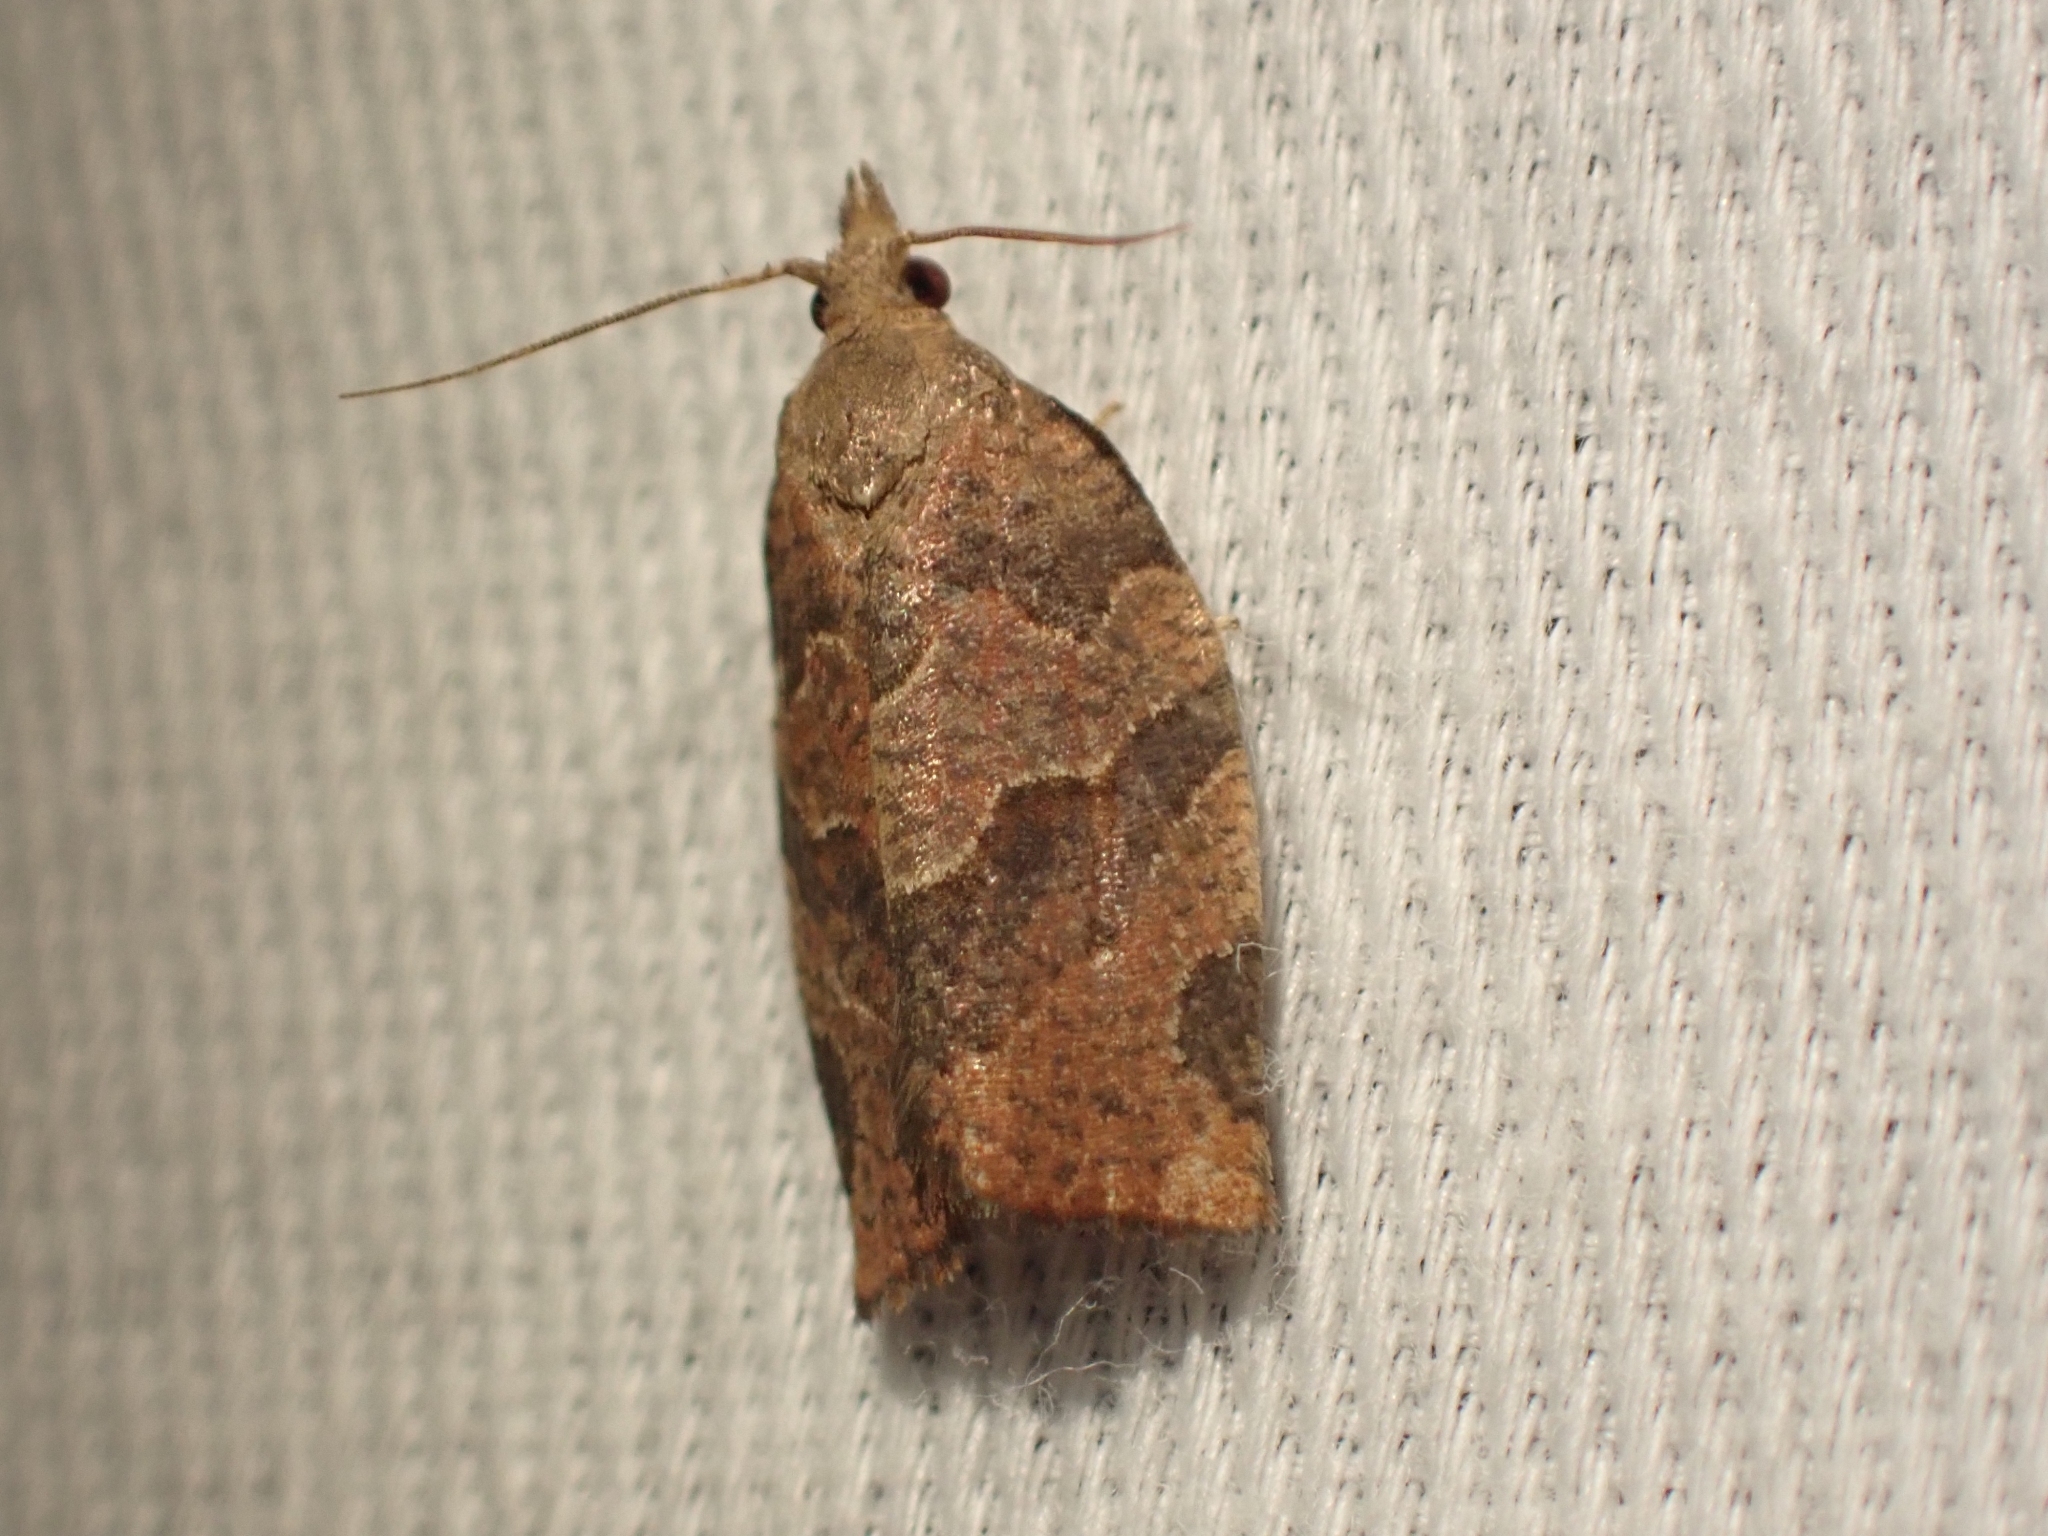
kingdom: Animalia
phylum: Arthropoda
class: Insecta
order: Lepidoptera
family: Tortricidae
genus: Pandemis
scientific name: Pandemis canadana
